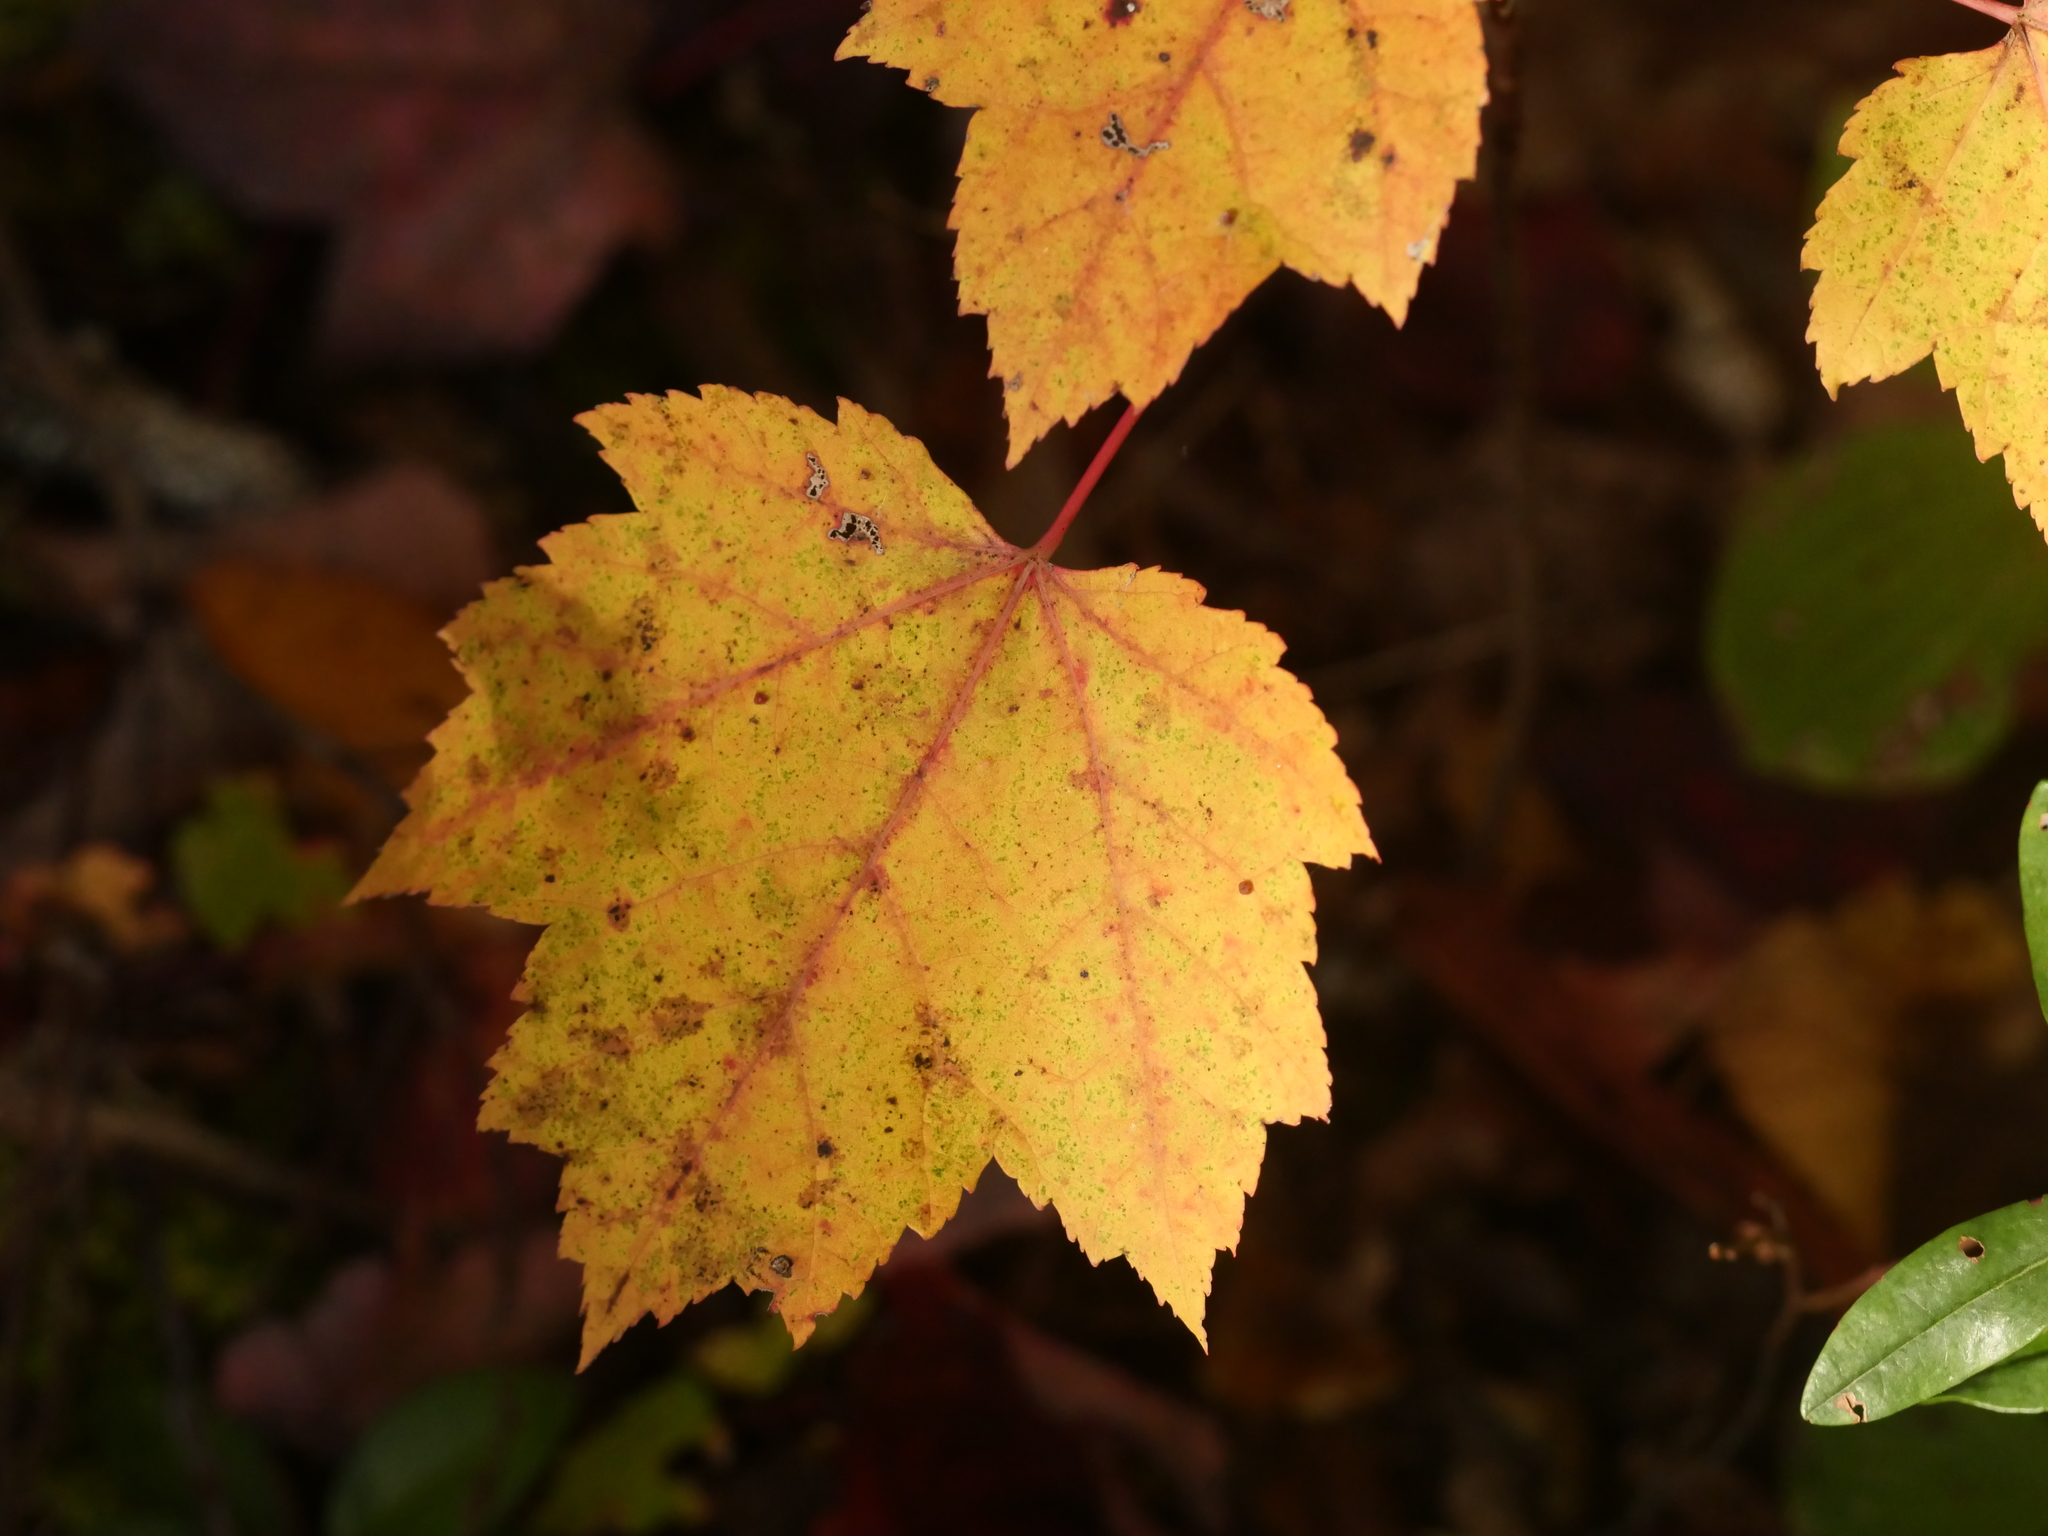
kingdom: Plantae
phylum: Tracheophyta
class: Magnoliopsida
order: Sapindales
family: Sapindaceae
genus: Acer
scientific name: Acer rubrum
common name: Red maple
